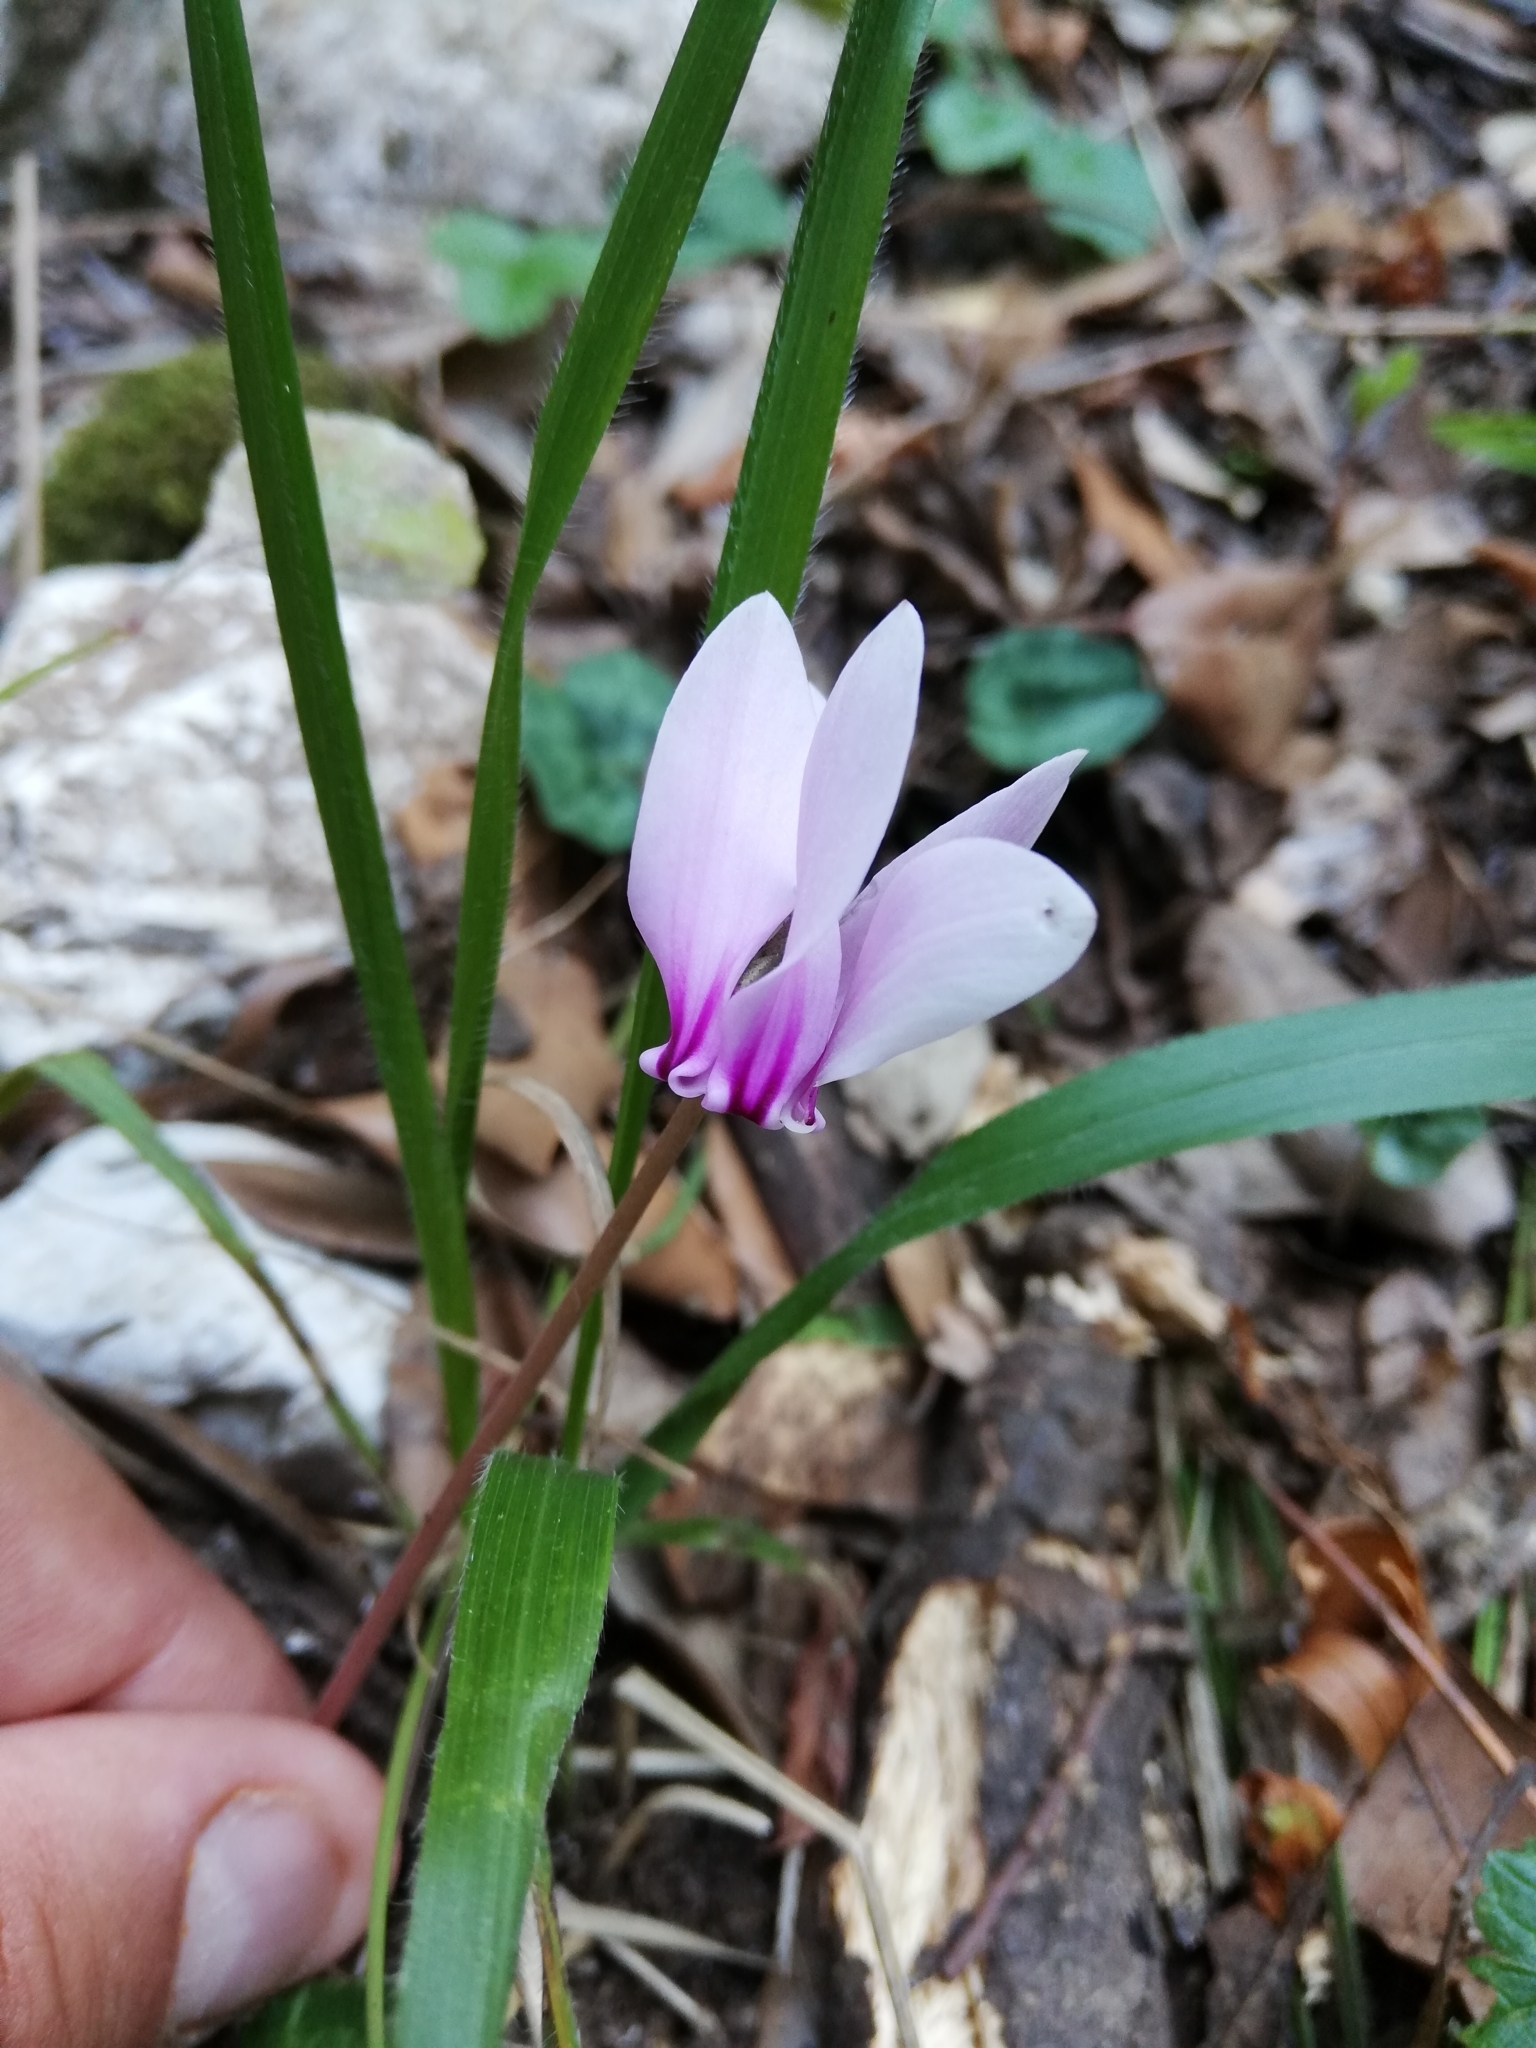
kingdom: Plantae
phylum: Tracheophyta
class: Magnoliopsida
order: Ericales
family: Primulaceae
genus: Cyclamen
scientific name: Cyclamen hederifolium
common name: Sowbread
